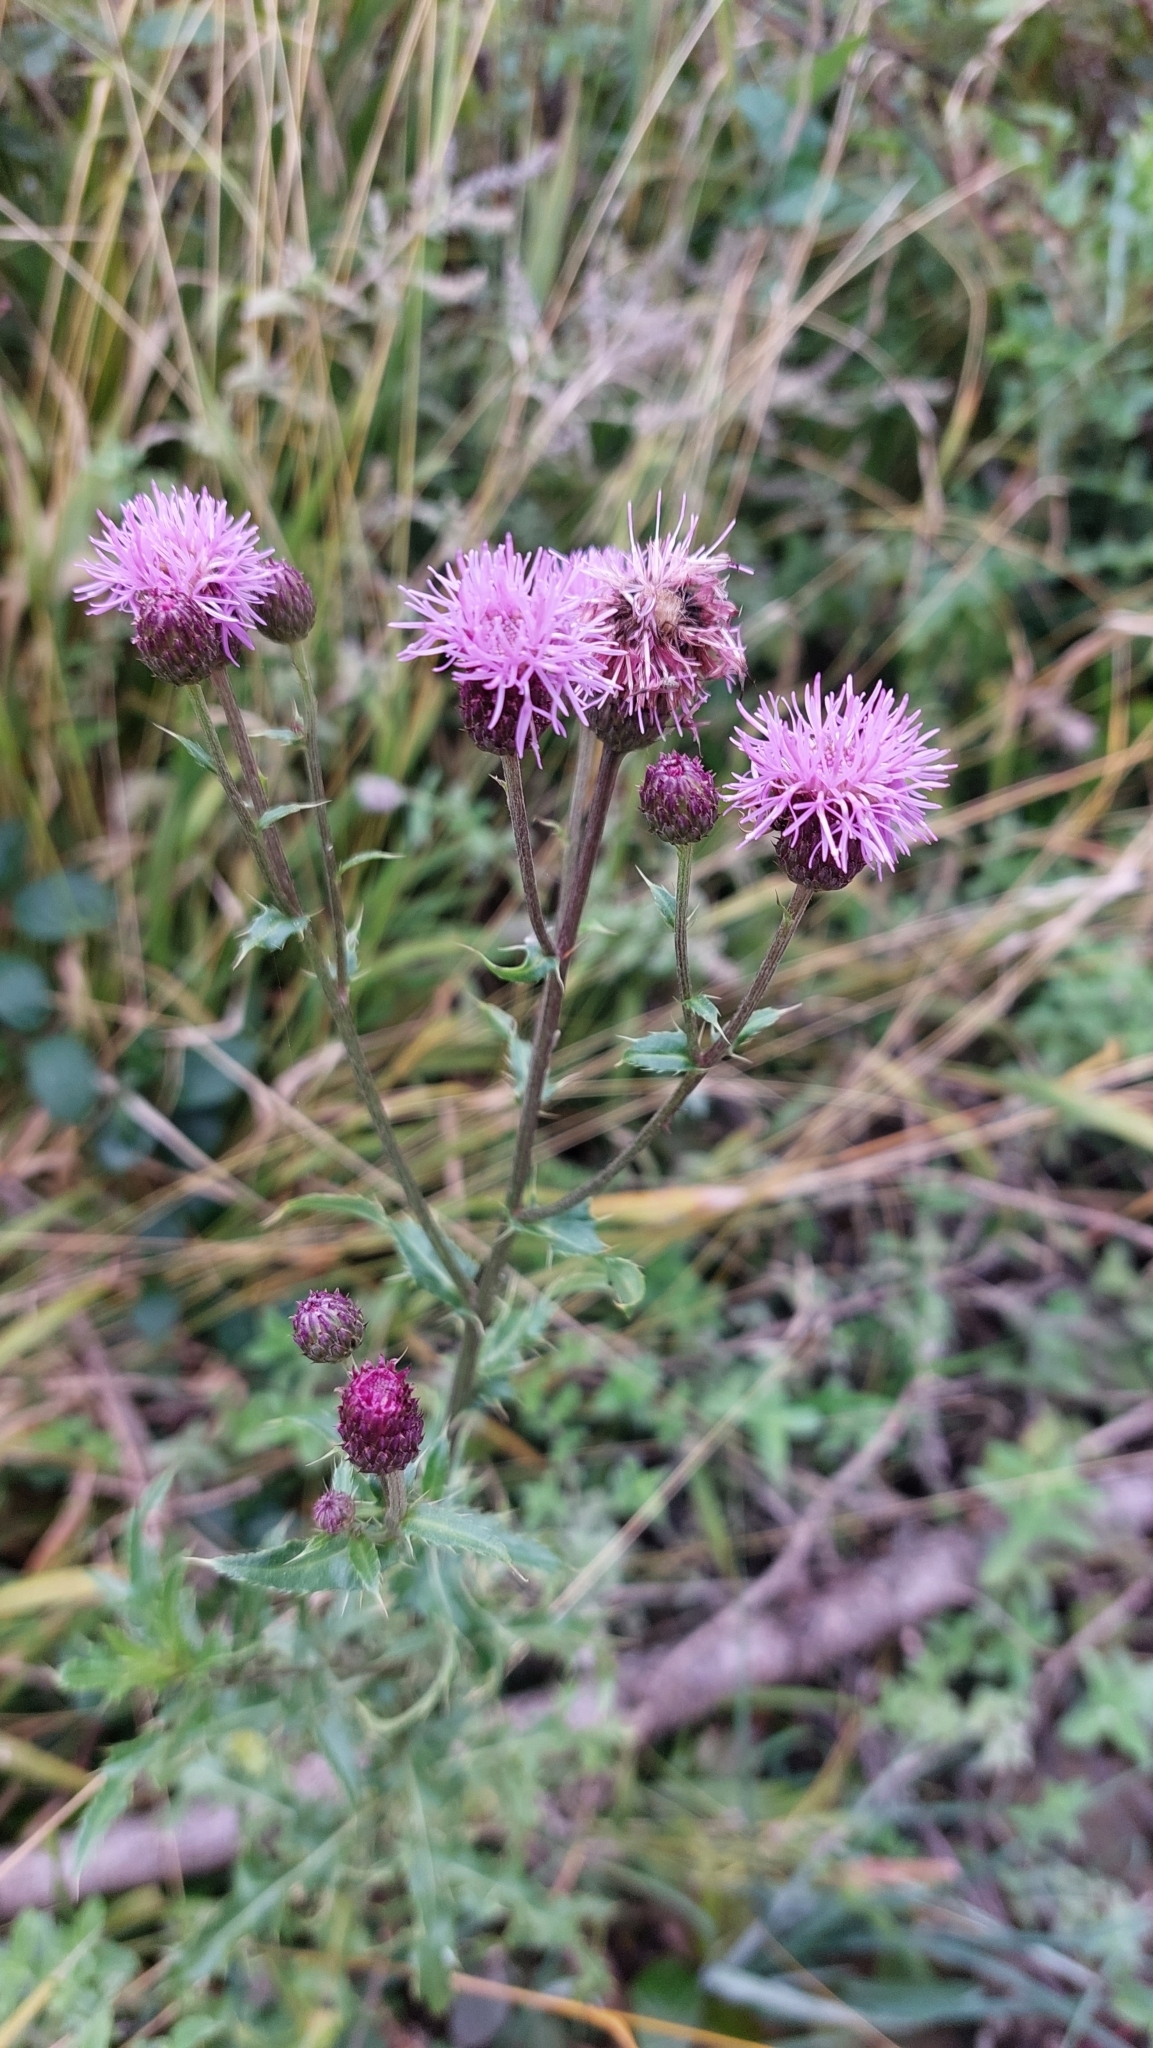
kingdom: Plantae
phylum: Tracheophyta
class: Magnoliopsida
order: Asterales
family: Asteraceae
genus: Cirsium
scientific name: Cirsium arvense
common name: Creeping thistle
